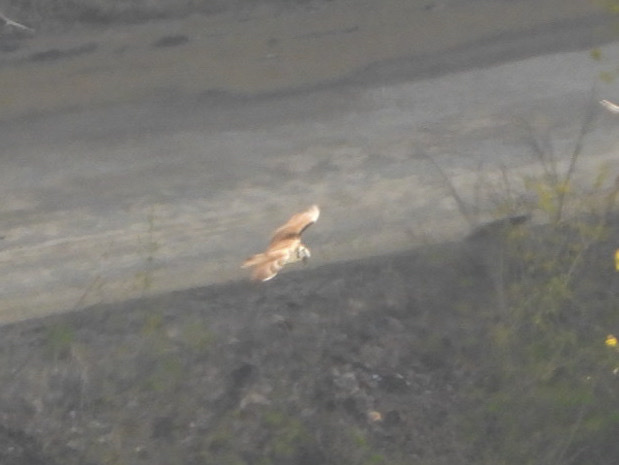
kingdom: Animalia
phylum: Chordata
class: Aves
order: Accipitriformes
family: Pandionidae
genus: Pandion
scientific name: Pandion haliaetus
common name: Osprey
